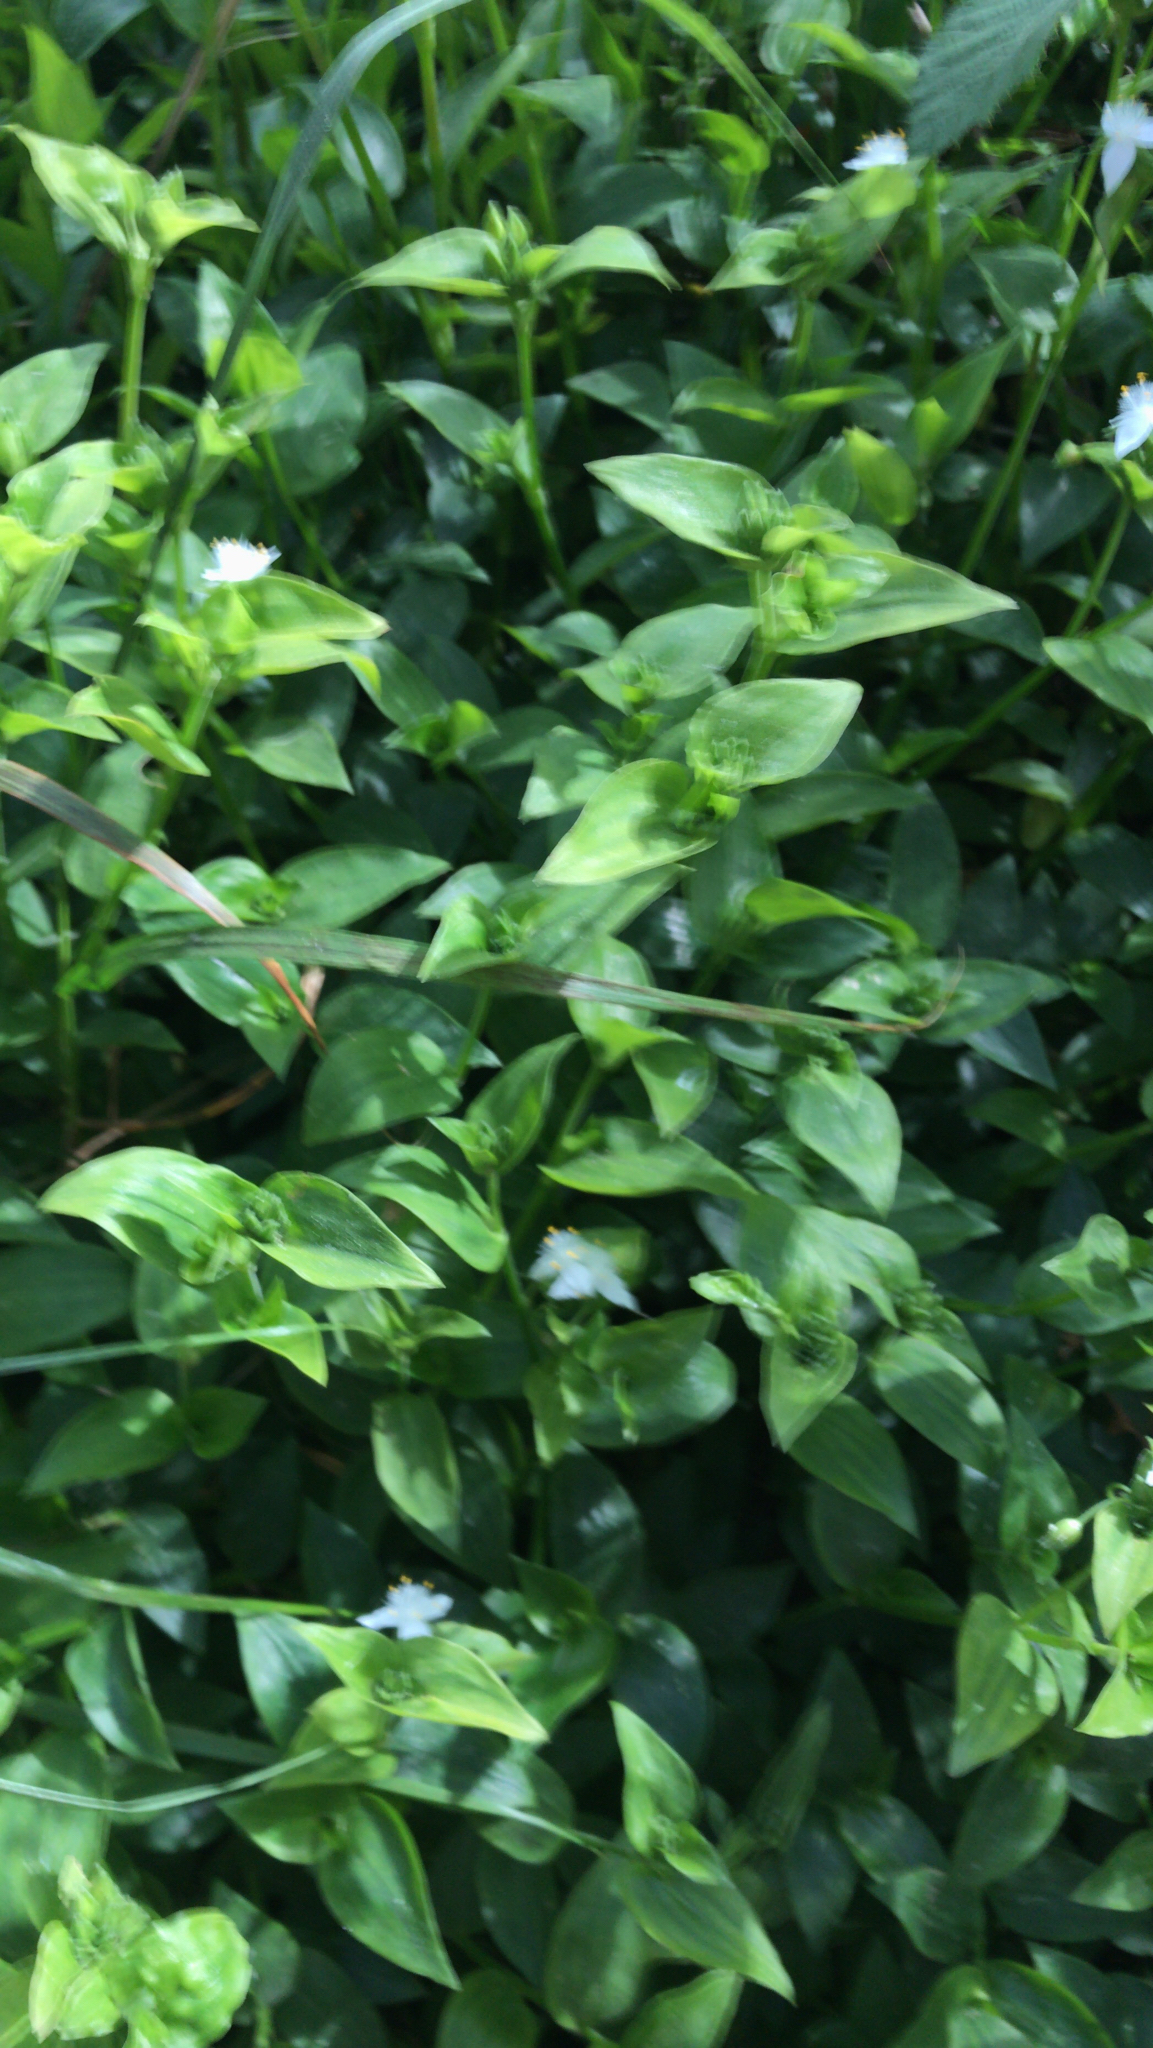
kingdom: Plantae
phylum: Tracheophyta
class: Liliopsida
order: Commelinales
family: Commelinaceae
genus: Tradescantia
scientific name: Tradescantia fluminensis
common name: Wandering-jew
